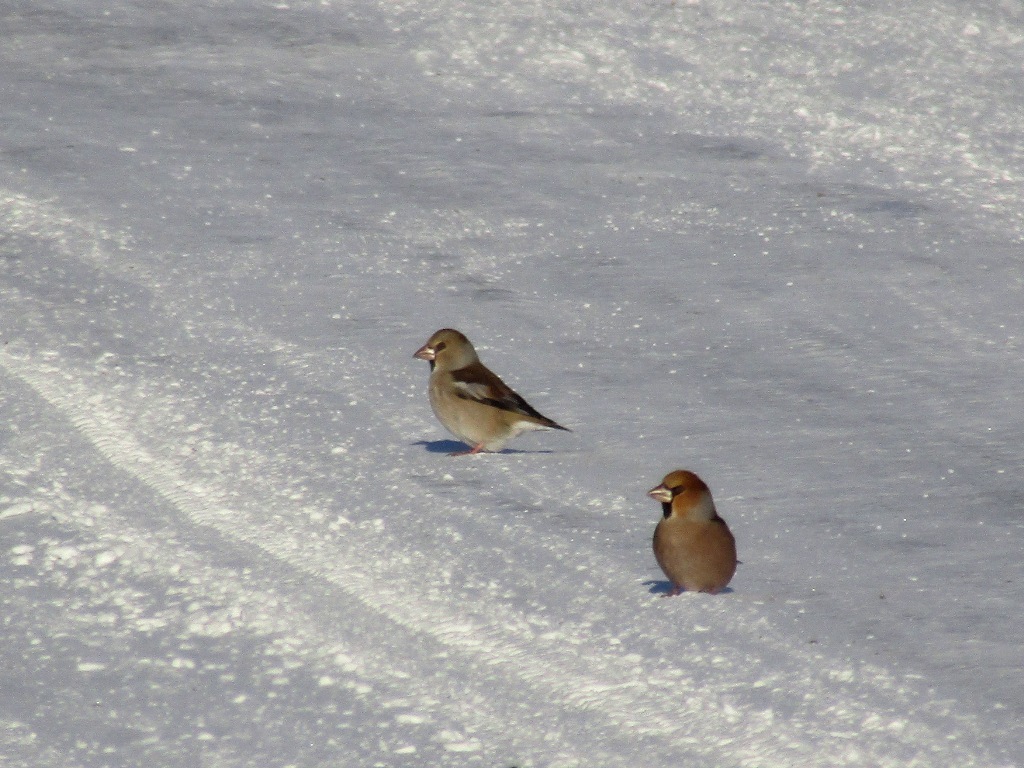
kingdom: Animalia
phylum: Chordata
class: Aves
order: Passeriformes
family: Fringillidae
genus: Coccothraustes
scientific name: Coccothraustes coccothraustes
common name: Hawfinch
